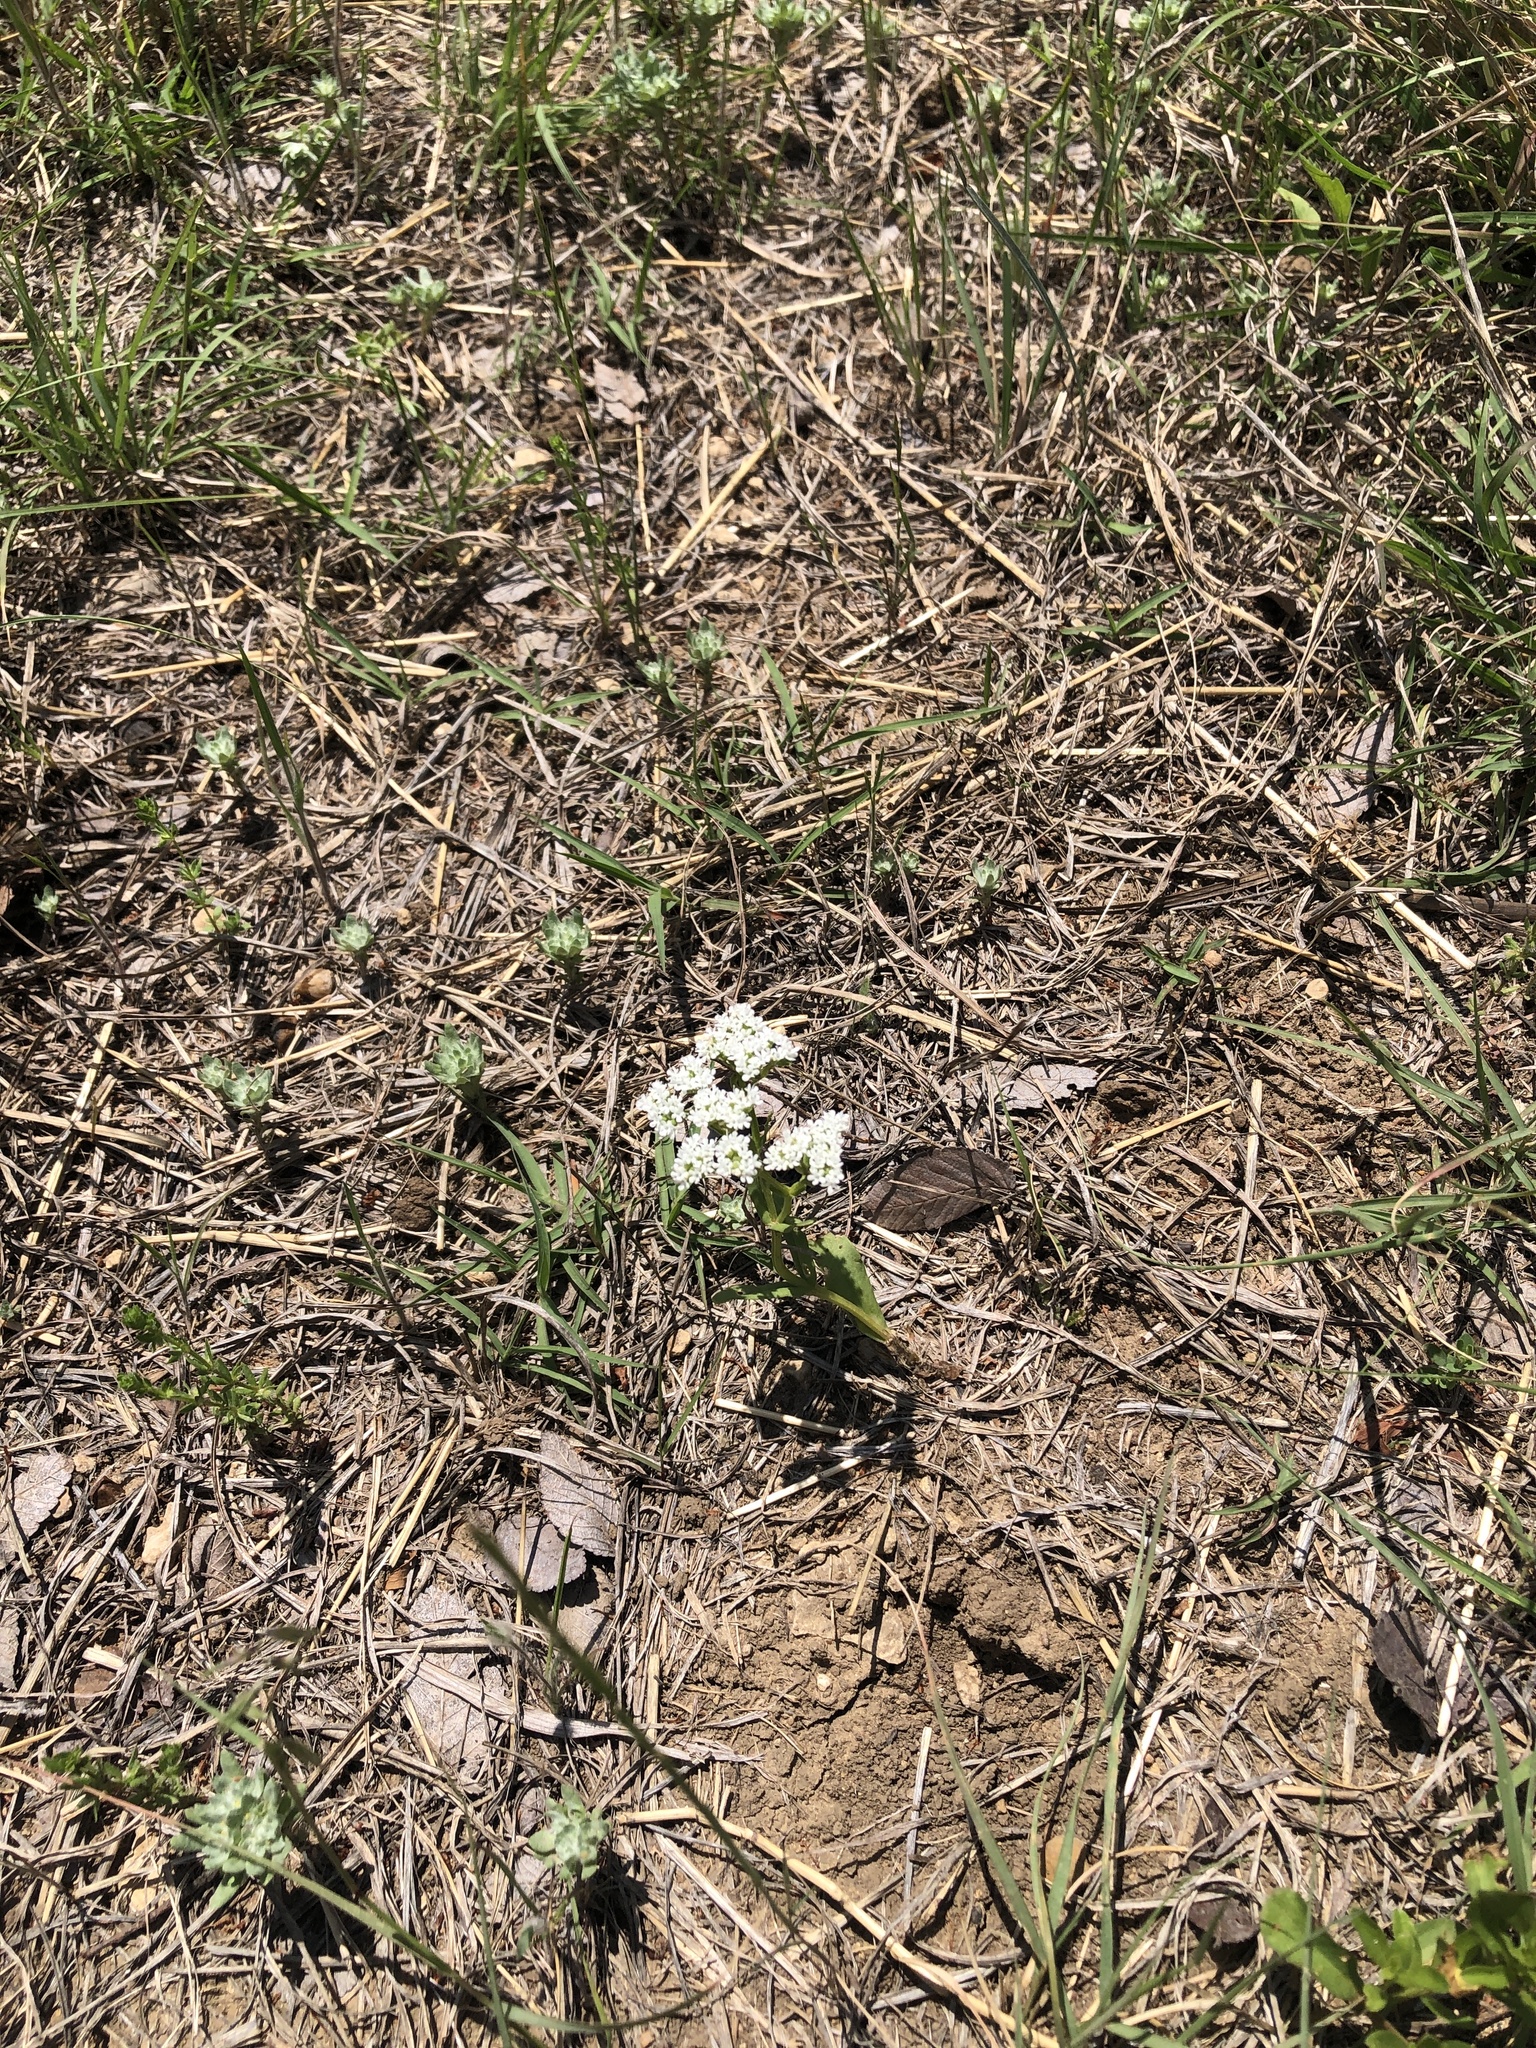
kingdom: Plantae
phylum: Tracheophyta
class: Magnoliopsida
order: Dipsacales
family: Caprifoliaceae
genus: Valerianella
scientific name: Valerianella amarella
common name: Hariy cornsalad
